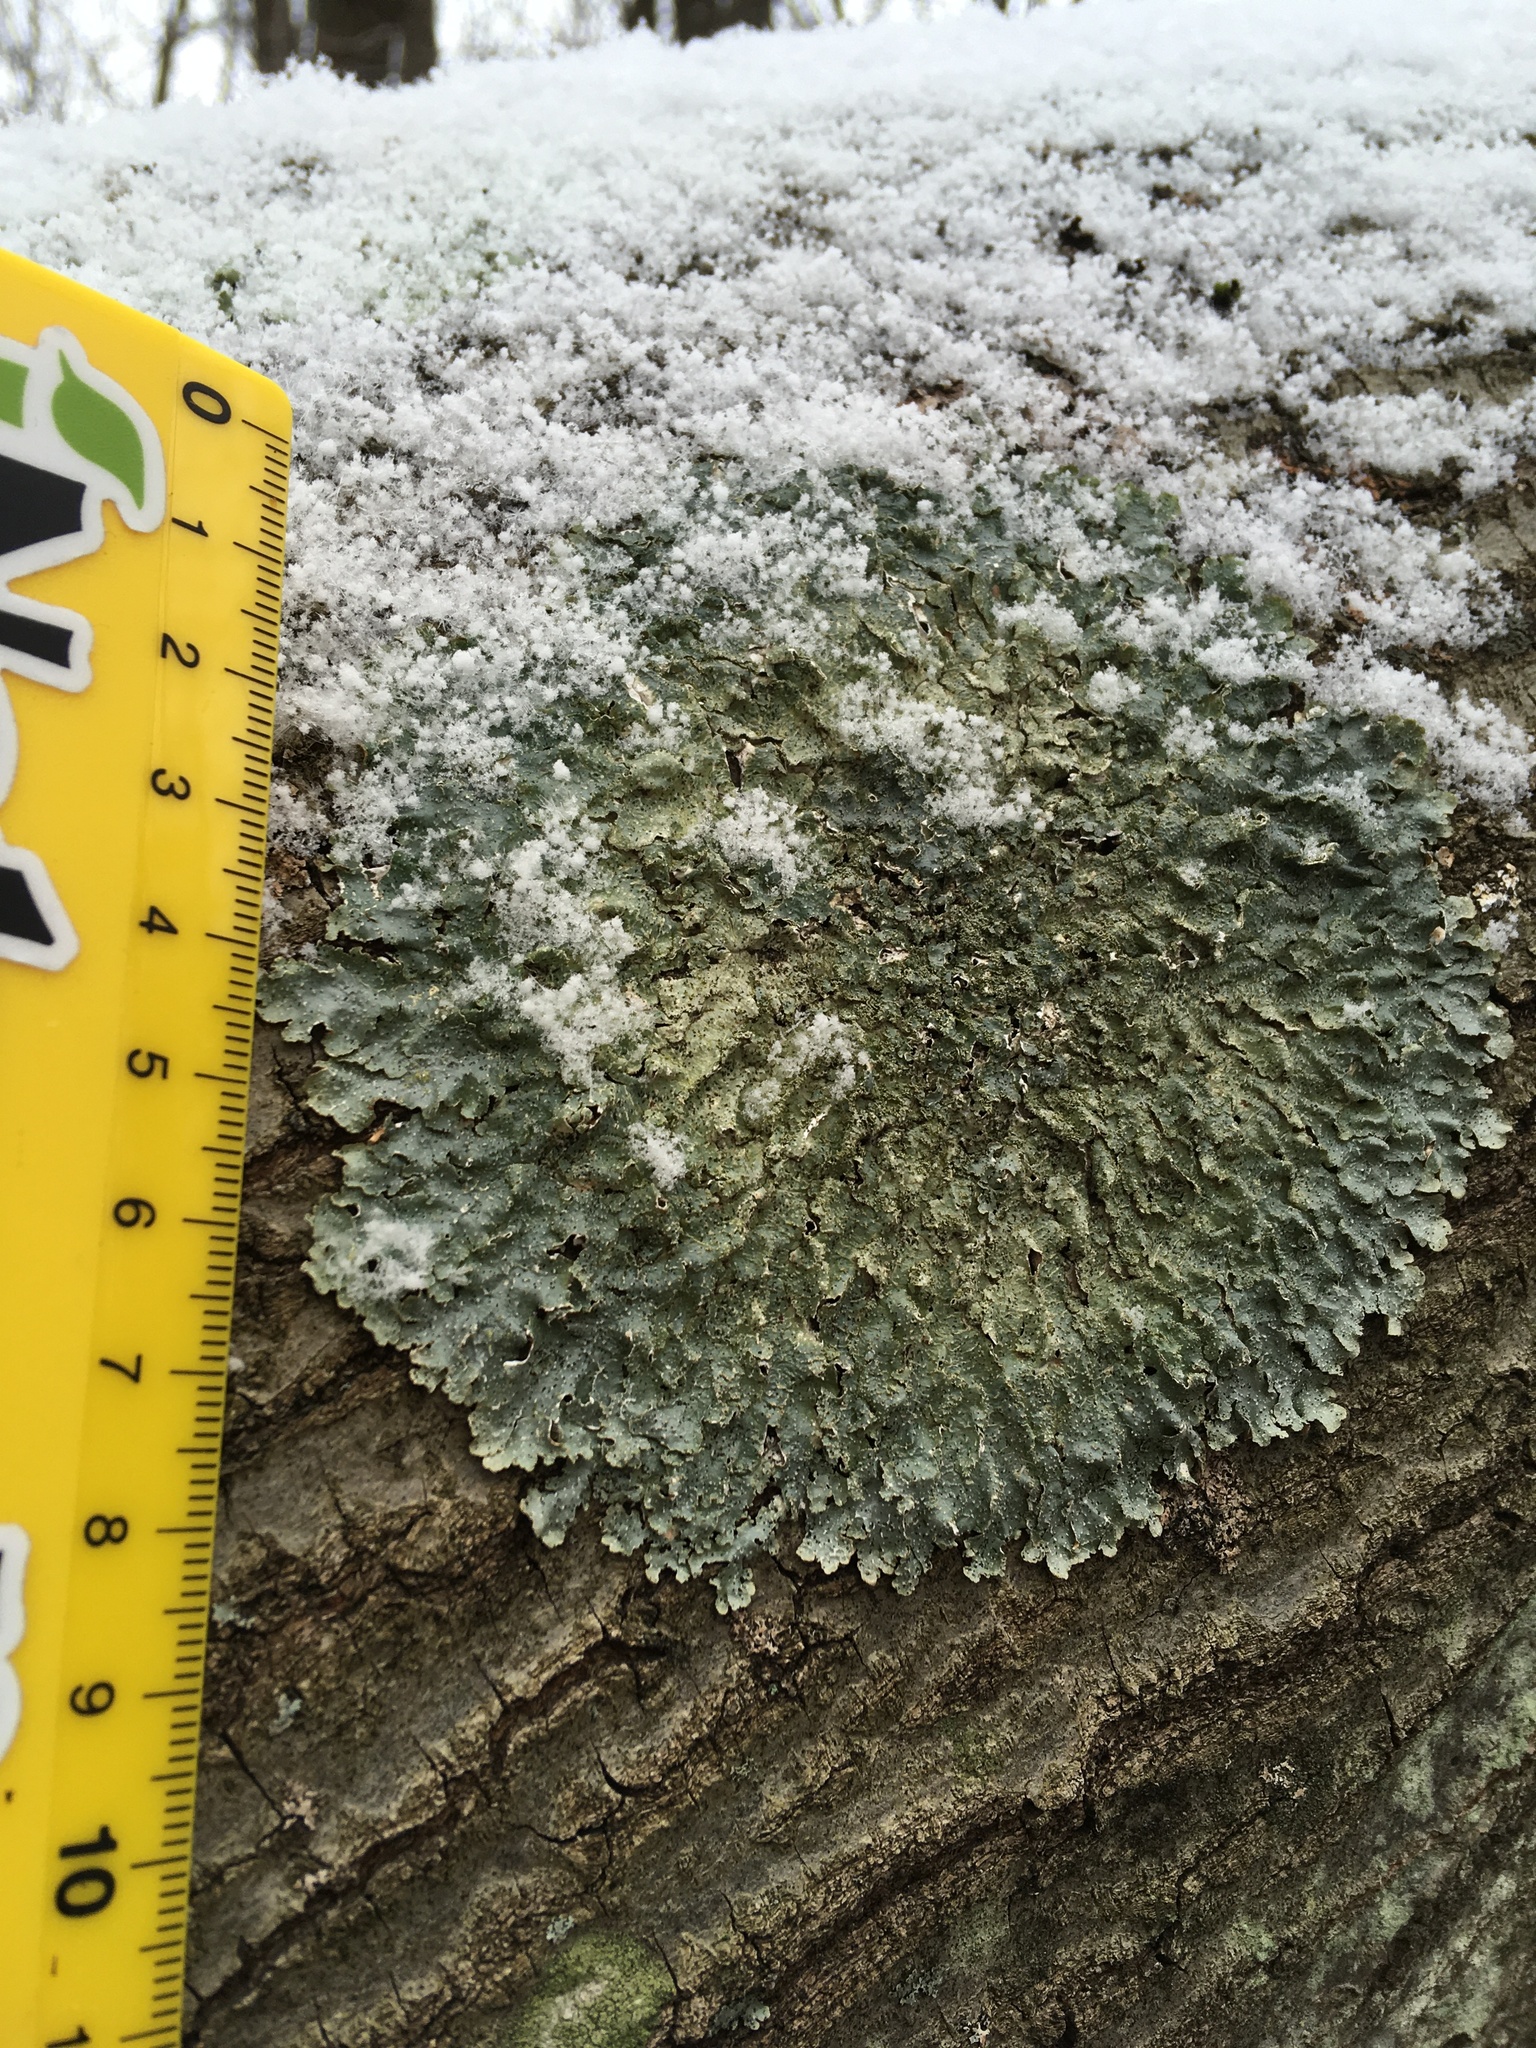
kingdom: Fungi
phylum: Ascomycota
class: Lecanoromycetes
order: Lecanorales
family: Parmeliaceae
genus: Punctelia
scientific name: Punctelia rudecta
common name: Rough speckled shield lichen
